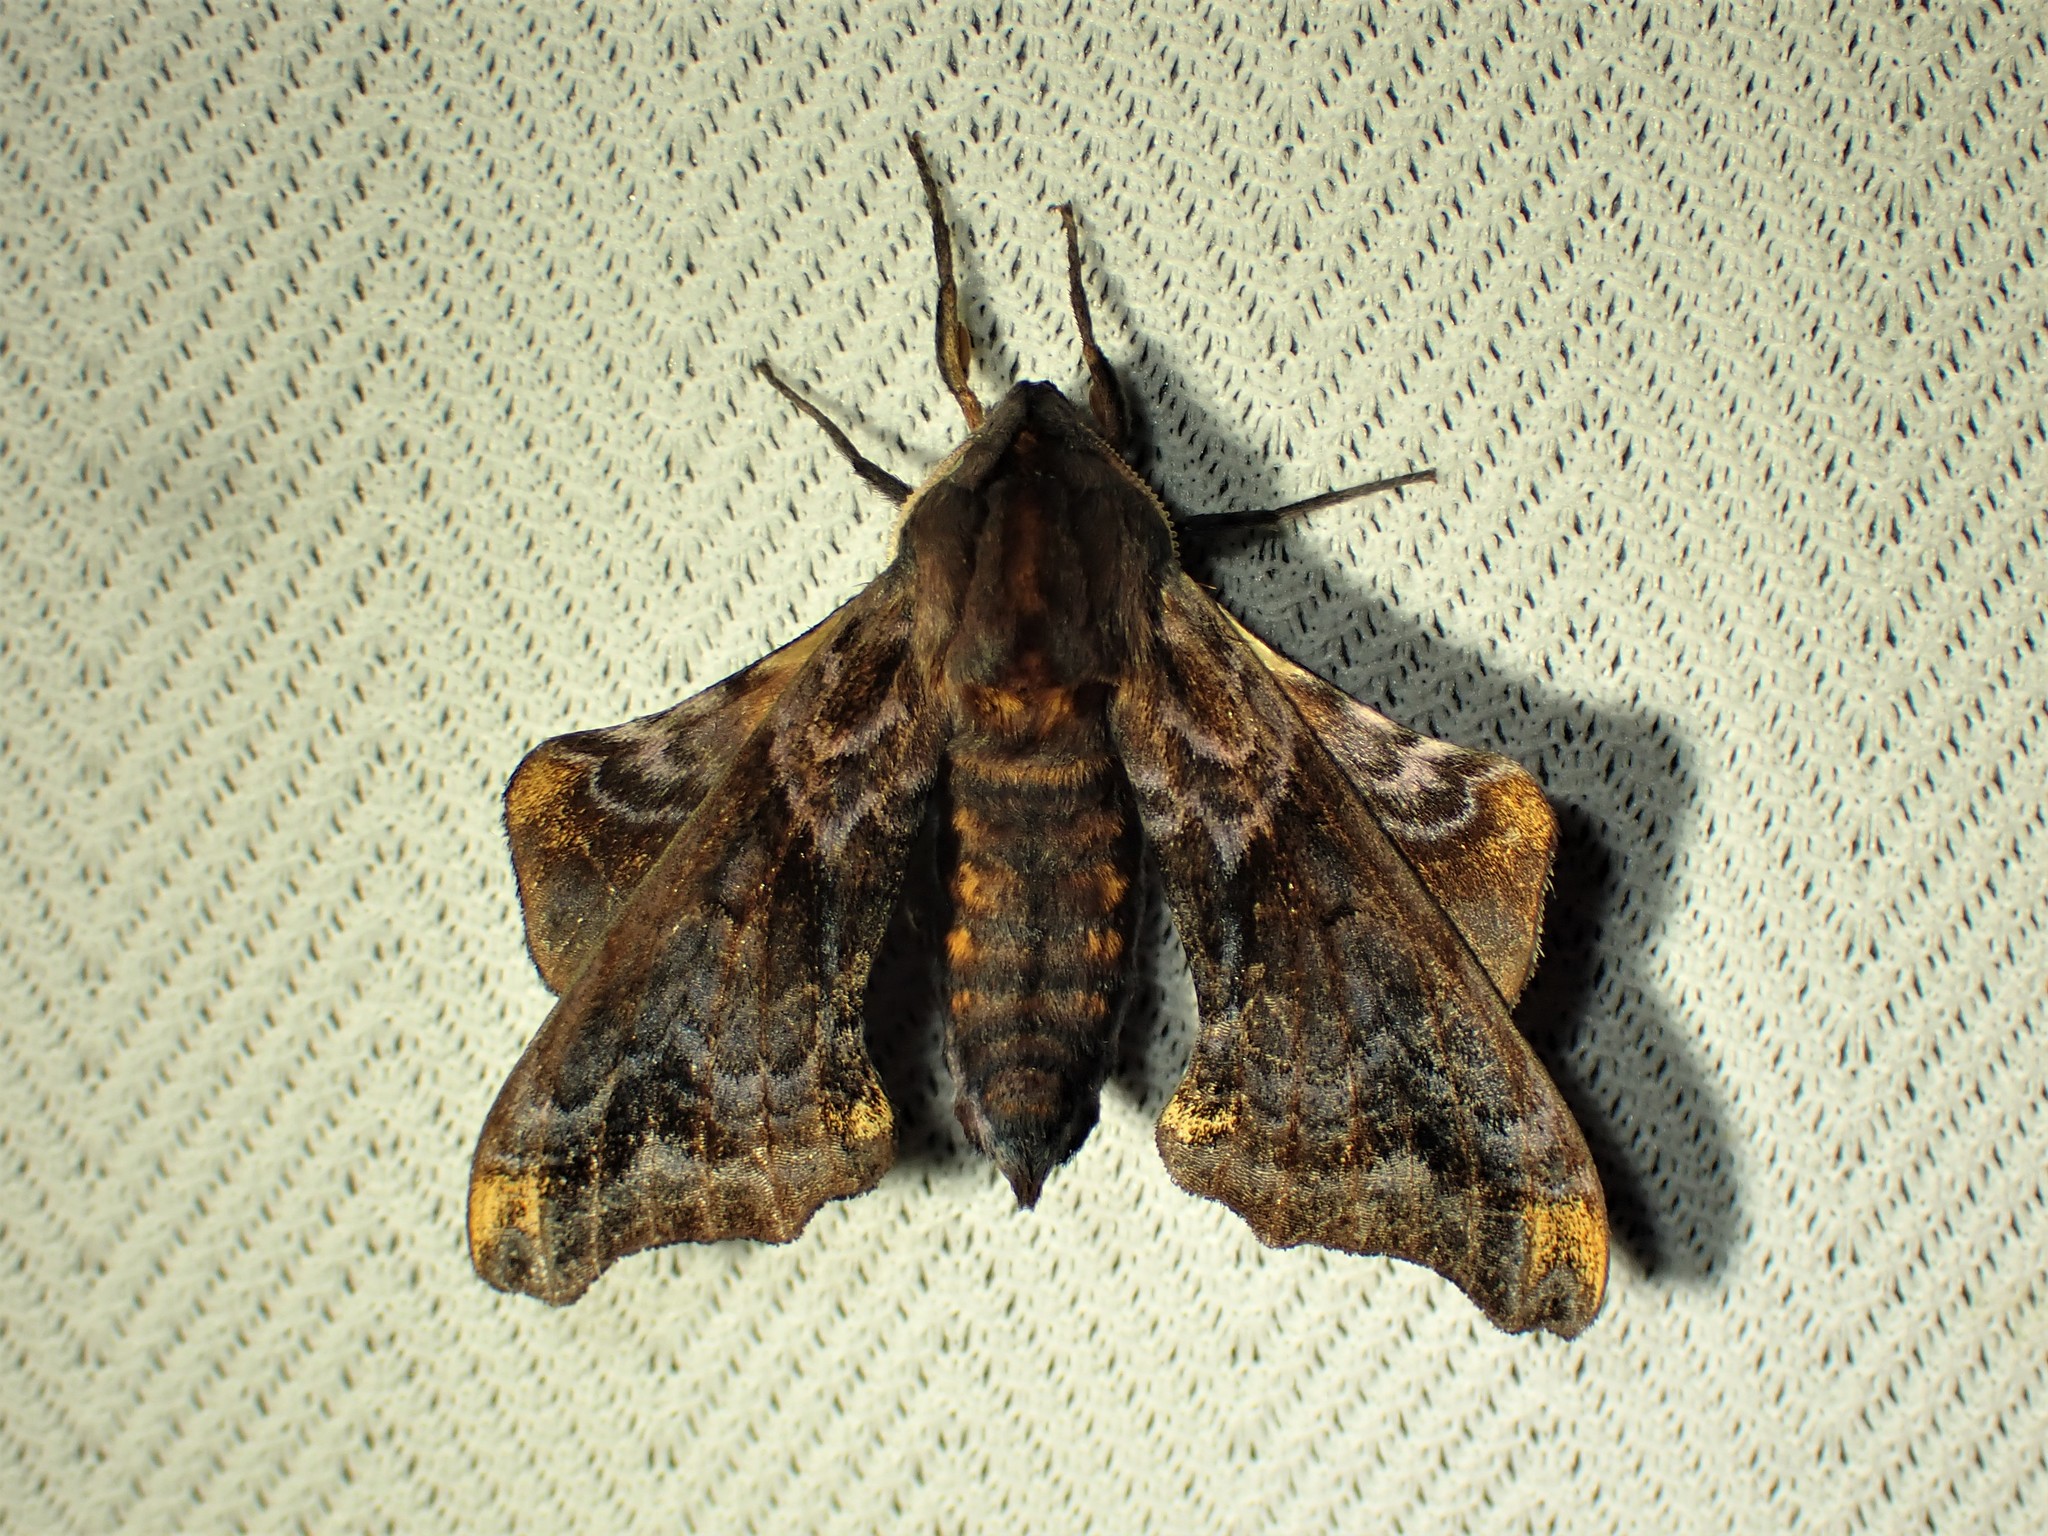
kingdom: Animalia
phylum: Arthropoda
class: Insecta
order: Lepidoptera
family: Sphingidae
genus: Paonias
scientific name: Paonias myops
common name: Small-eyed sphinx
